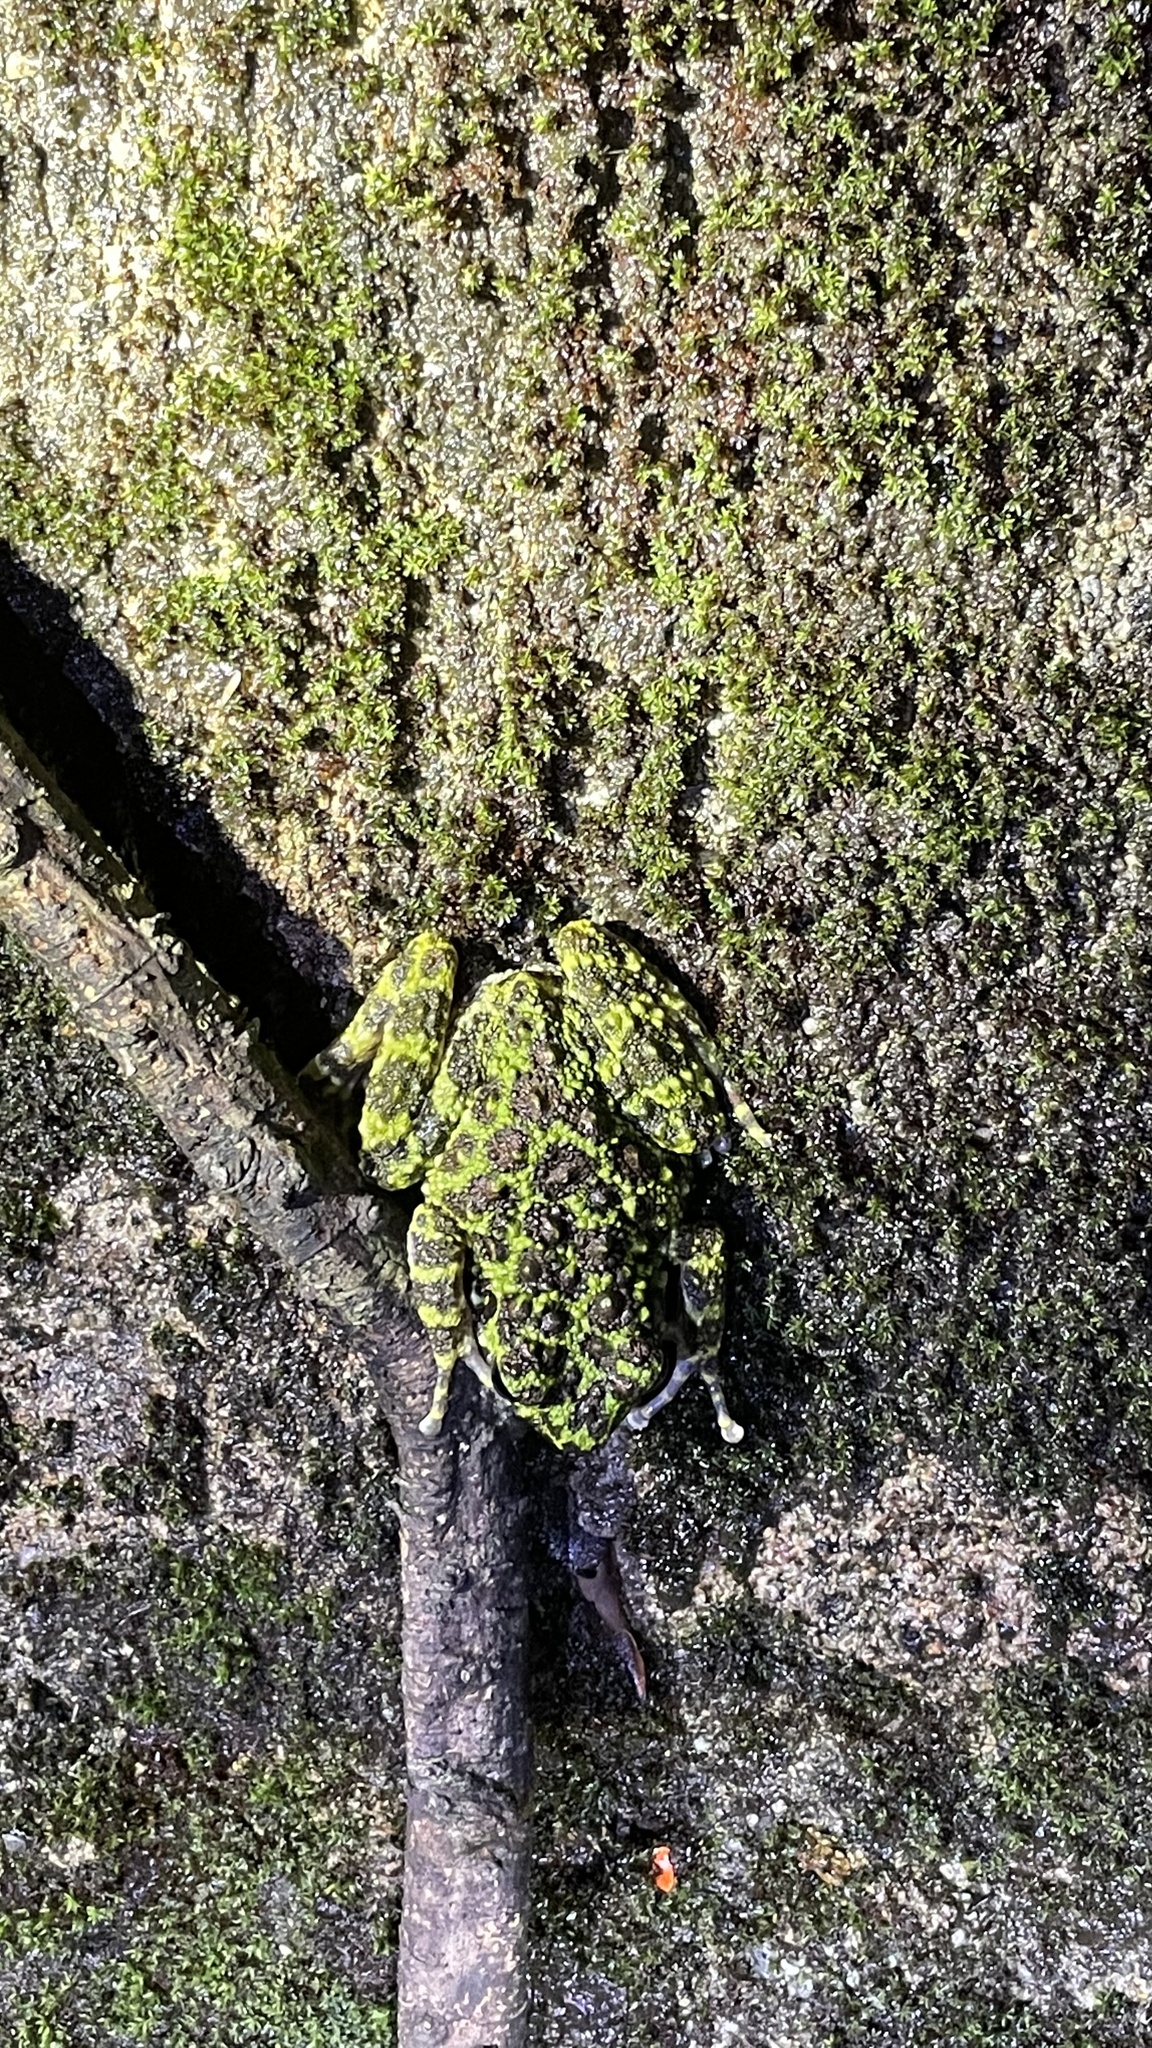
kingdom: Animalia
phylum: Chordata
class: Amphibia
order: Anura
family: Ranidae
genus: Odorrana
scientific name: Odorrana ishikawae
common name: Okinawa ishikawa's frog
